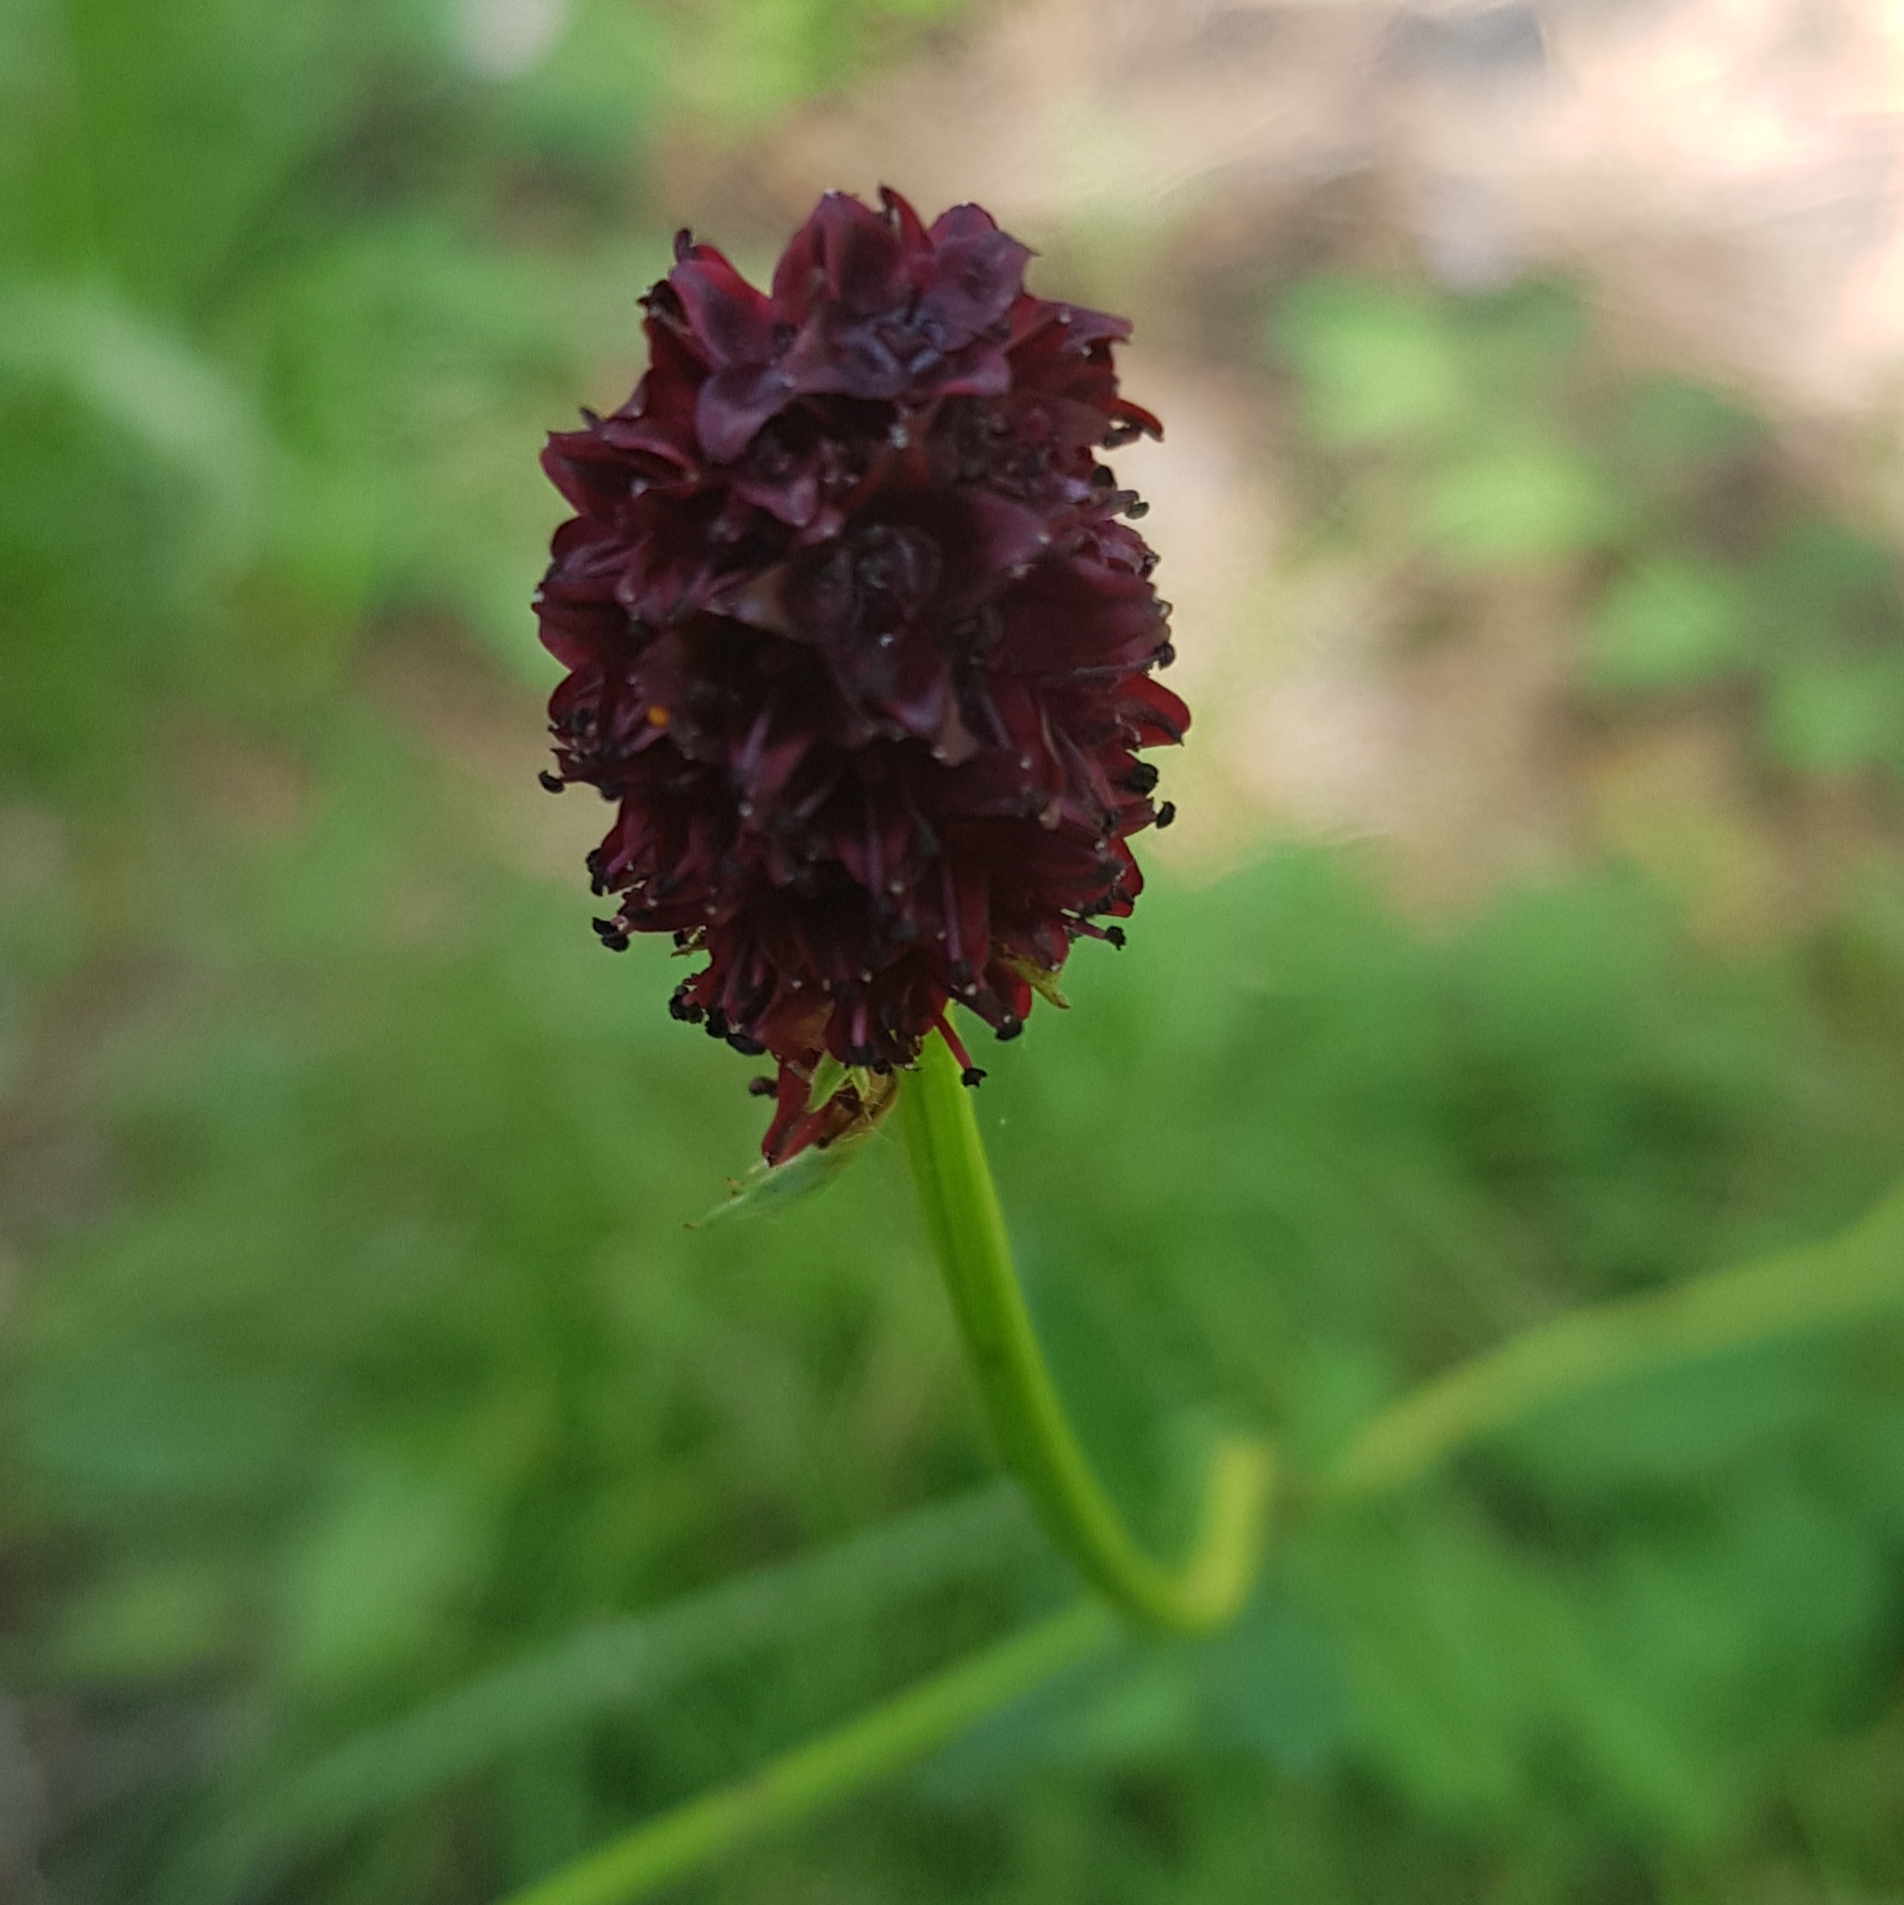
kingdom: Plantae
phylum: Tracheophyta
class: Magnoliopsida
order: Rosales
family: Rosaceae
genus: Sanguisorba
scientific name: Sanguisorba officinalis
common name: Great burnet
